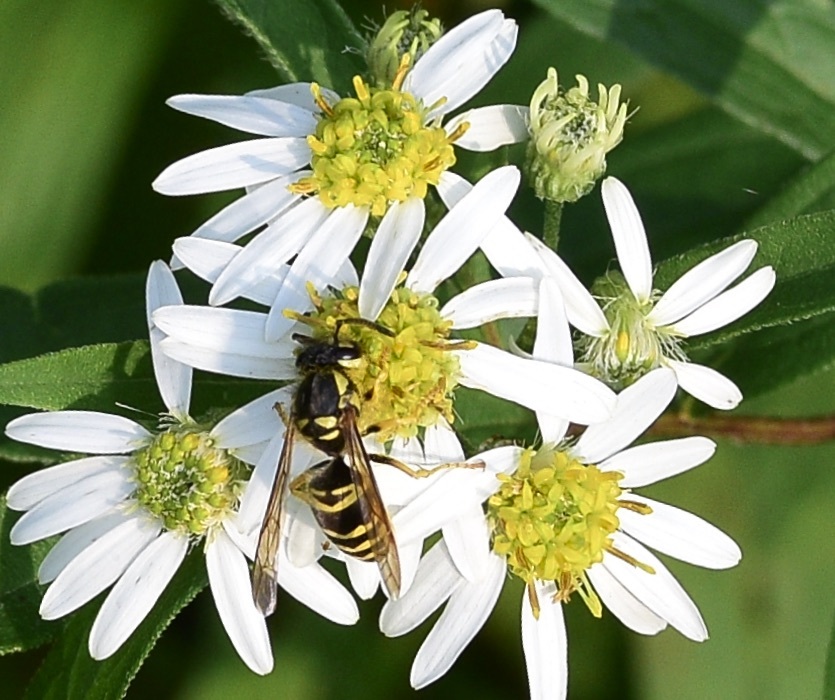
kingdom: Animalia
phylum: Arthropoda
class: Insecta
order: Hymenoptera
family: Vespidae
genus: Vespula
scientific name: Vespula maculifrons
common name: Eastern yellowjacket
